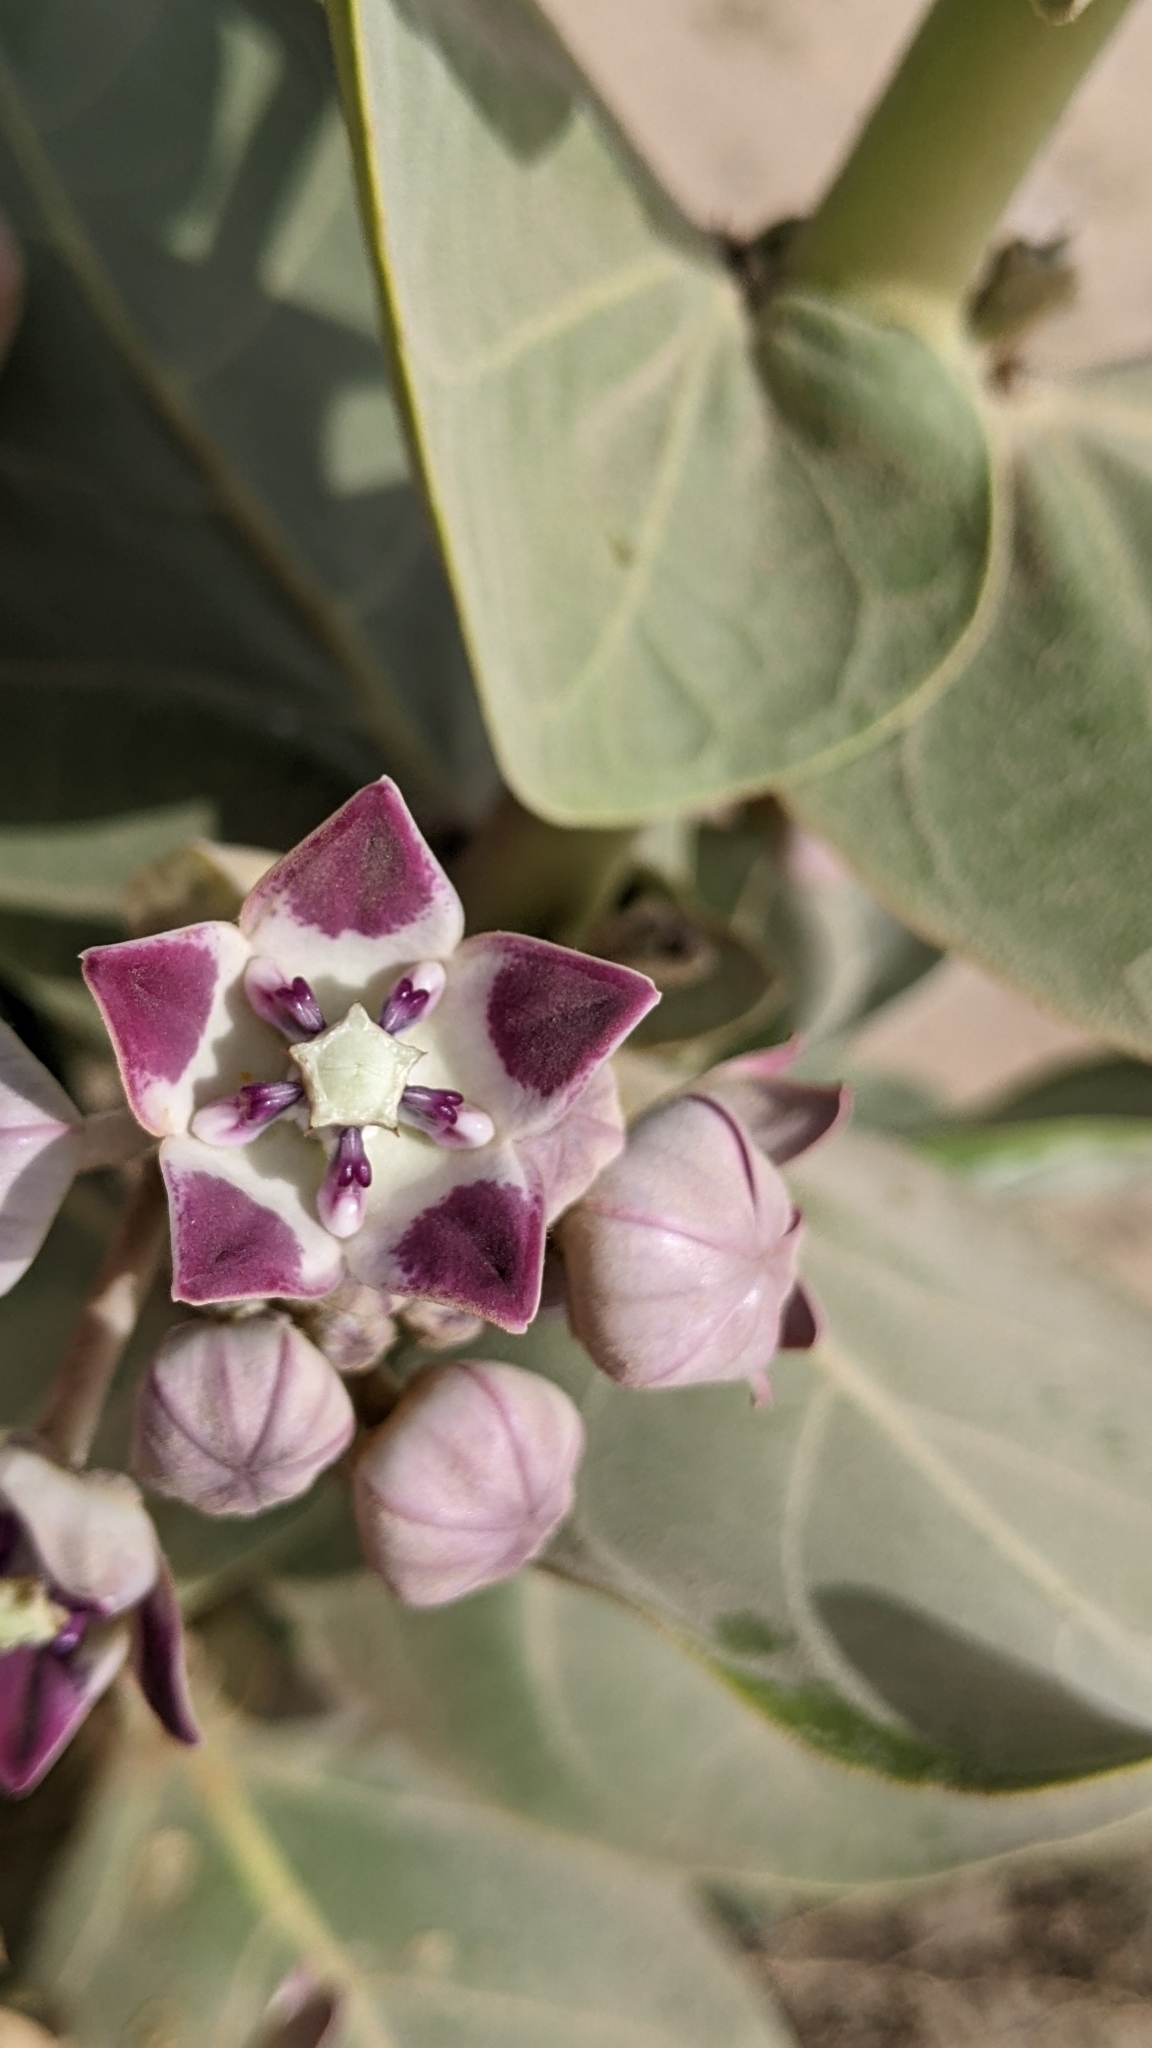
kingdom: Plantae
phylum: Tracheophyta
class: Magnoliopsida
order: Gentianales
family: Apocynaceae
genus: Calotropis
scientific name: Calotropis procera
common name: Roostertree
